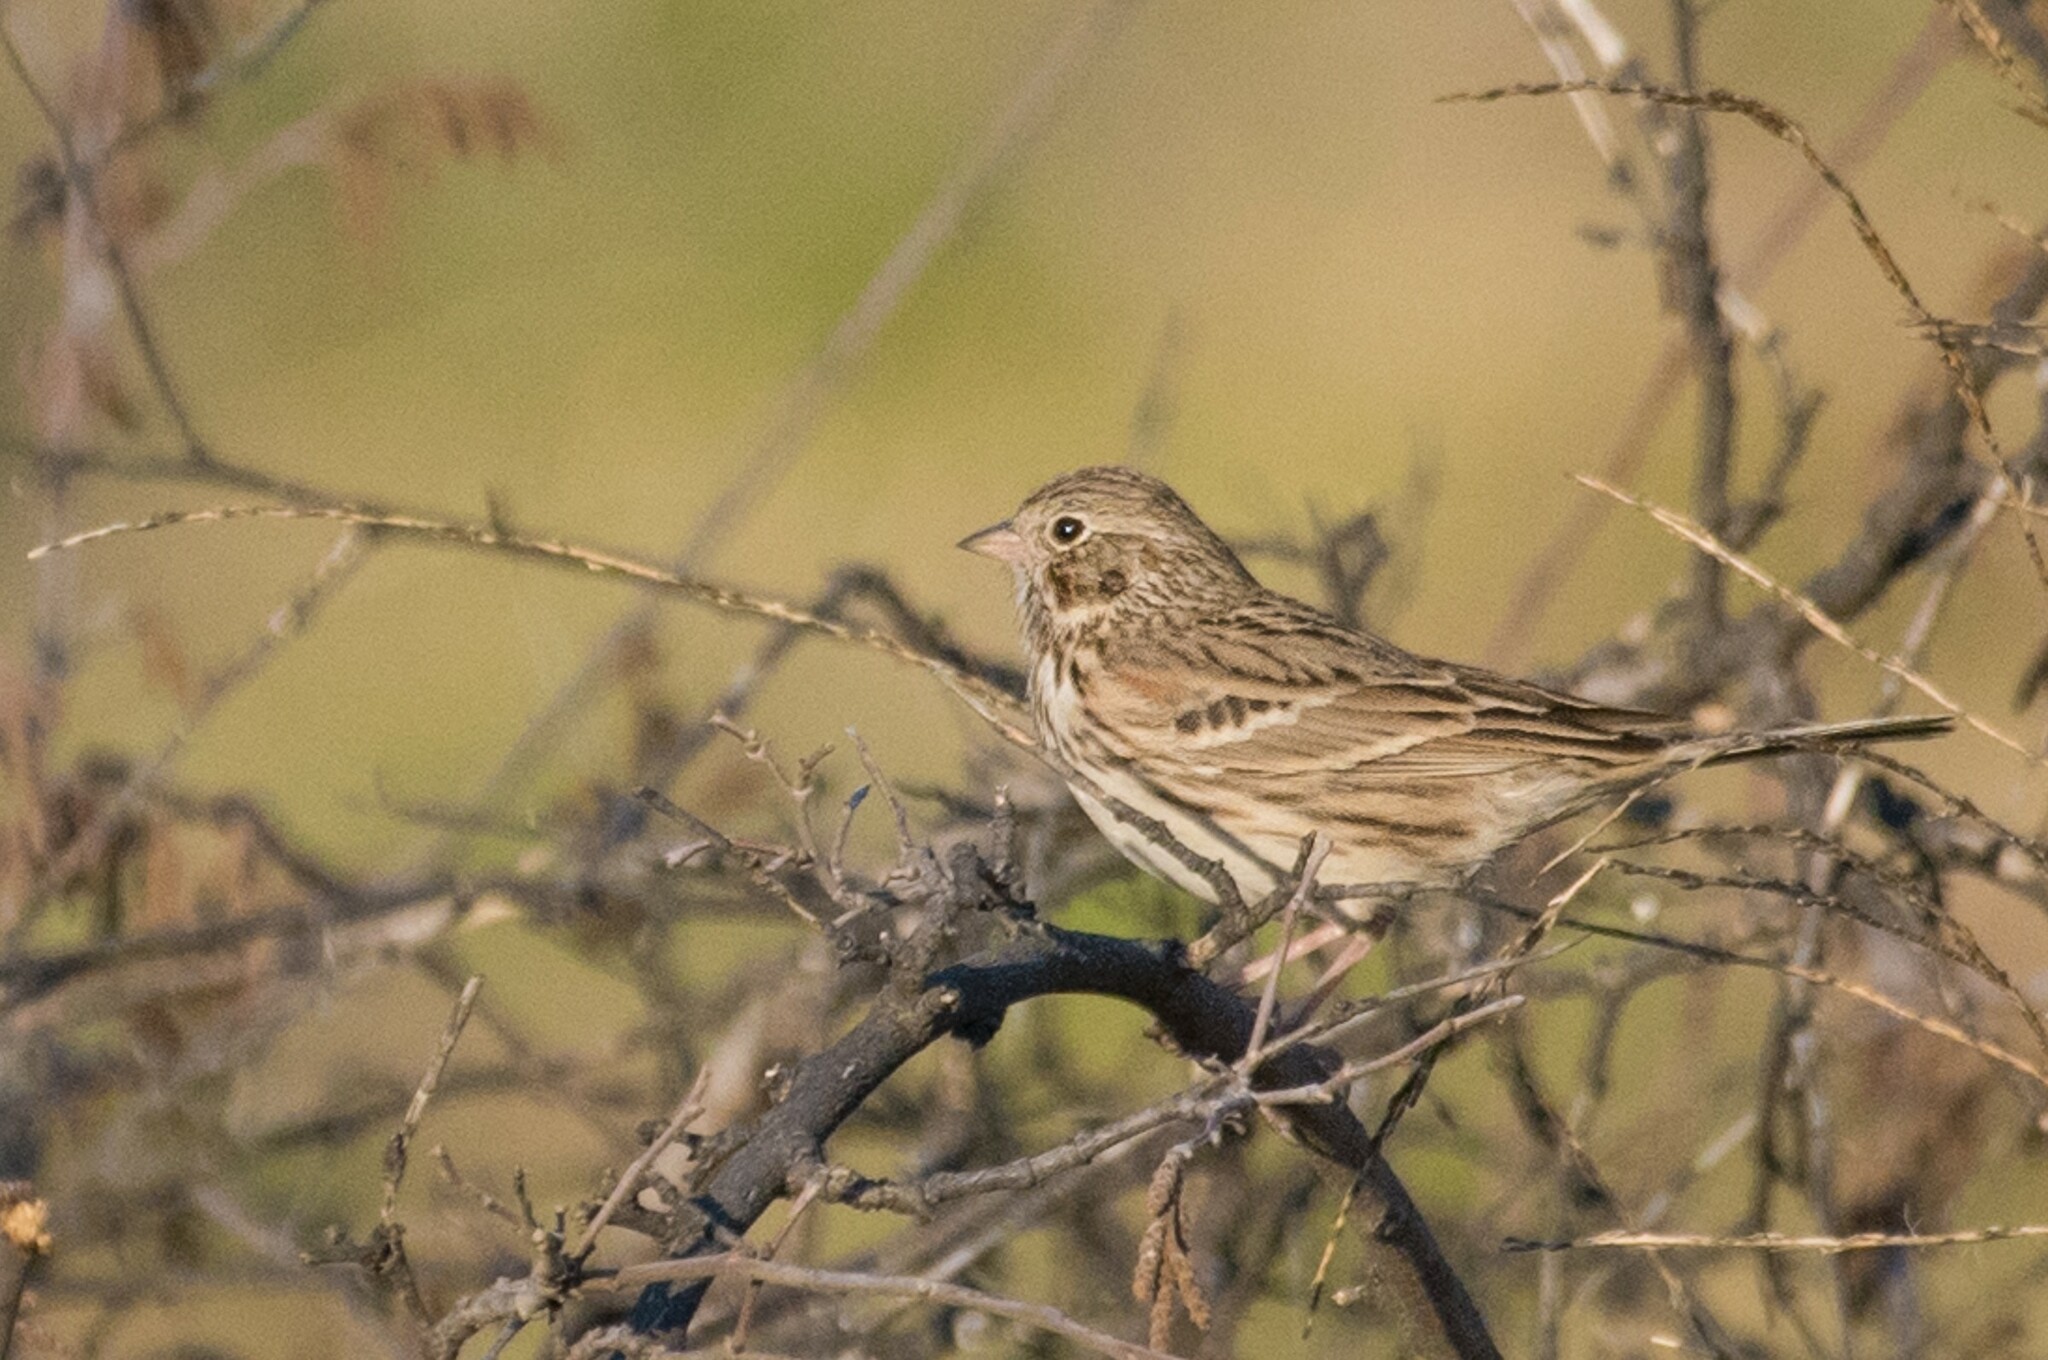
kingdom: Animalia
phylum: Chordata
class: Aves
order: Passeriformes
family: Passerellidae
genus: Pooecetes
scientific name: Pooecetes gramineus
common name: Vesper sparrow
